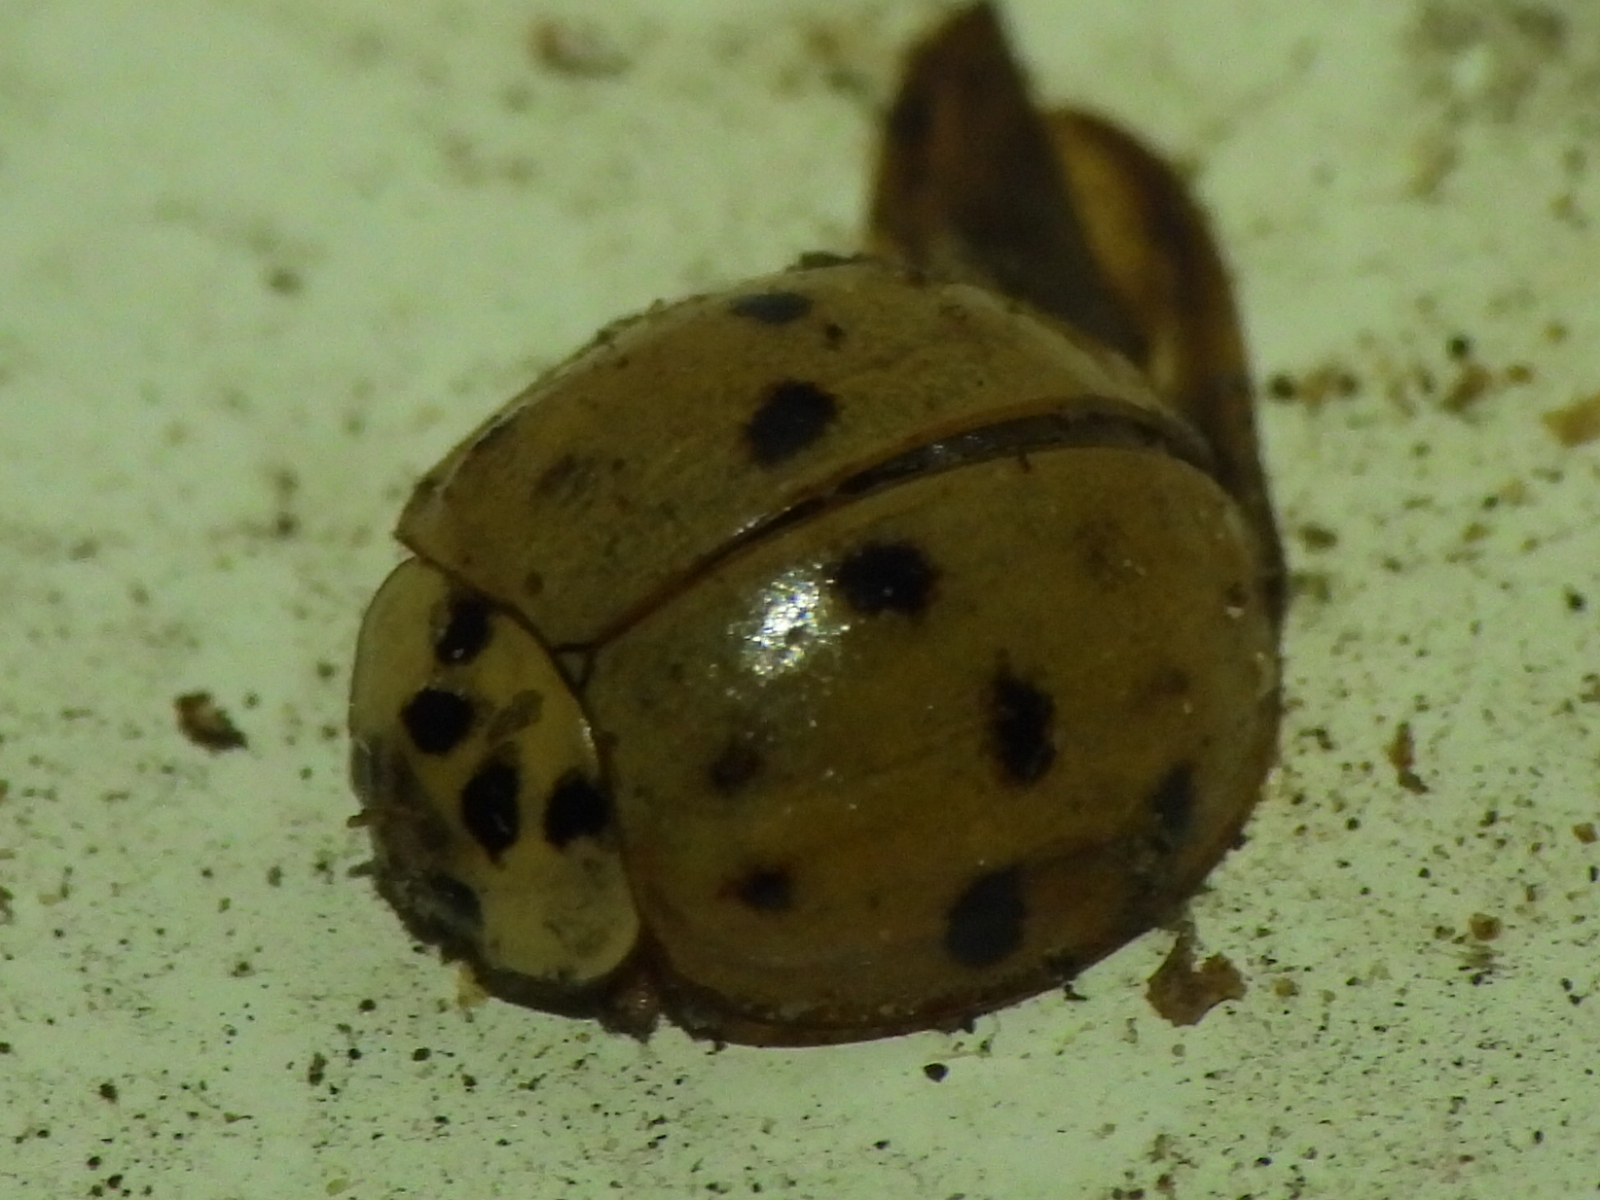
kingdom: Animalia
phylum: Arthropoda
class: Insecta
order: Coleoptera
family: Coccinellidae
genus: Harmonia
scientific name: Harmonia axyridis
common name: Harlequin ladybird
